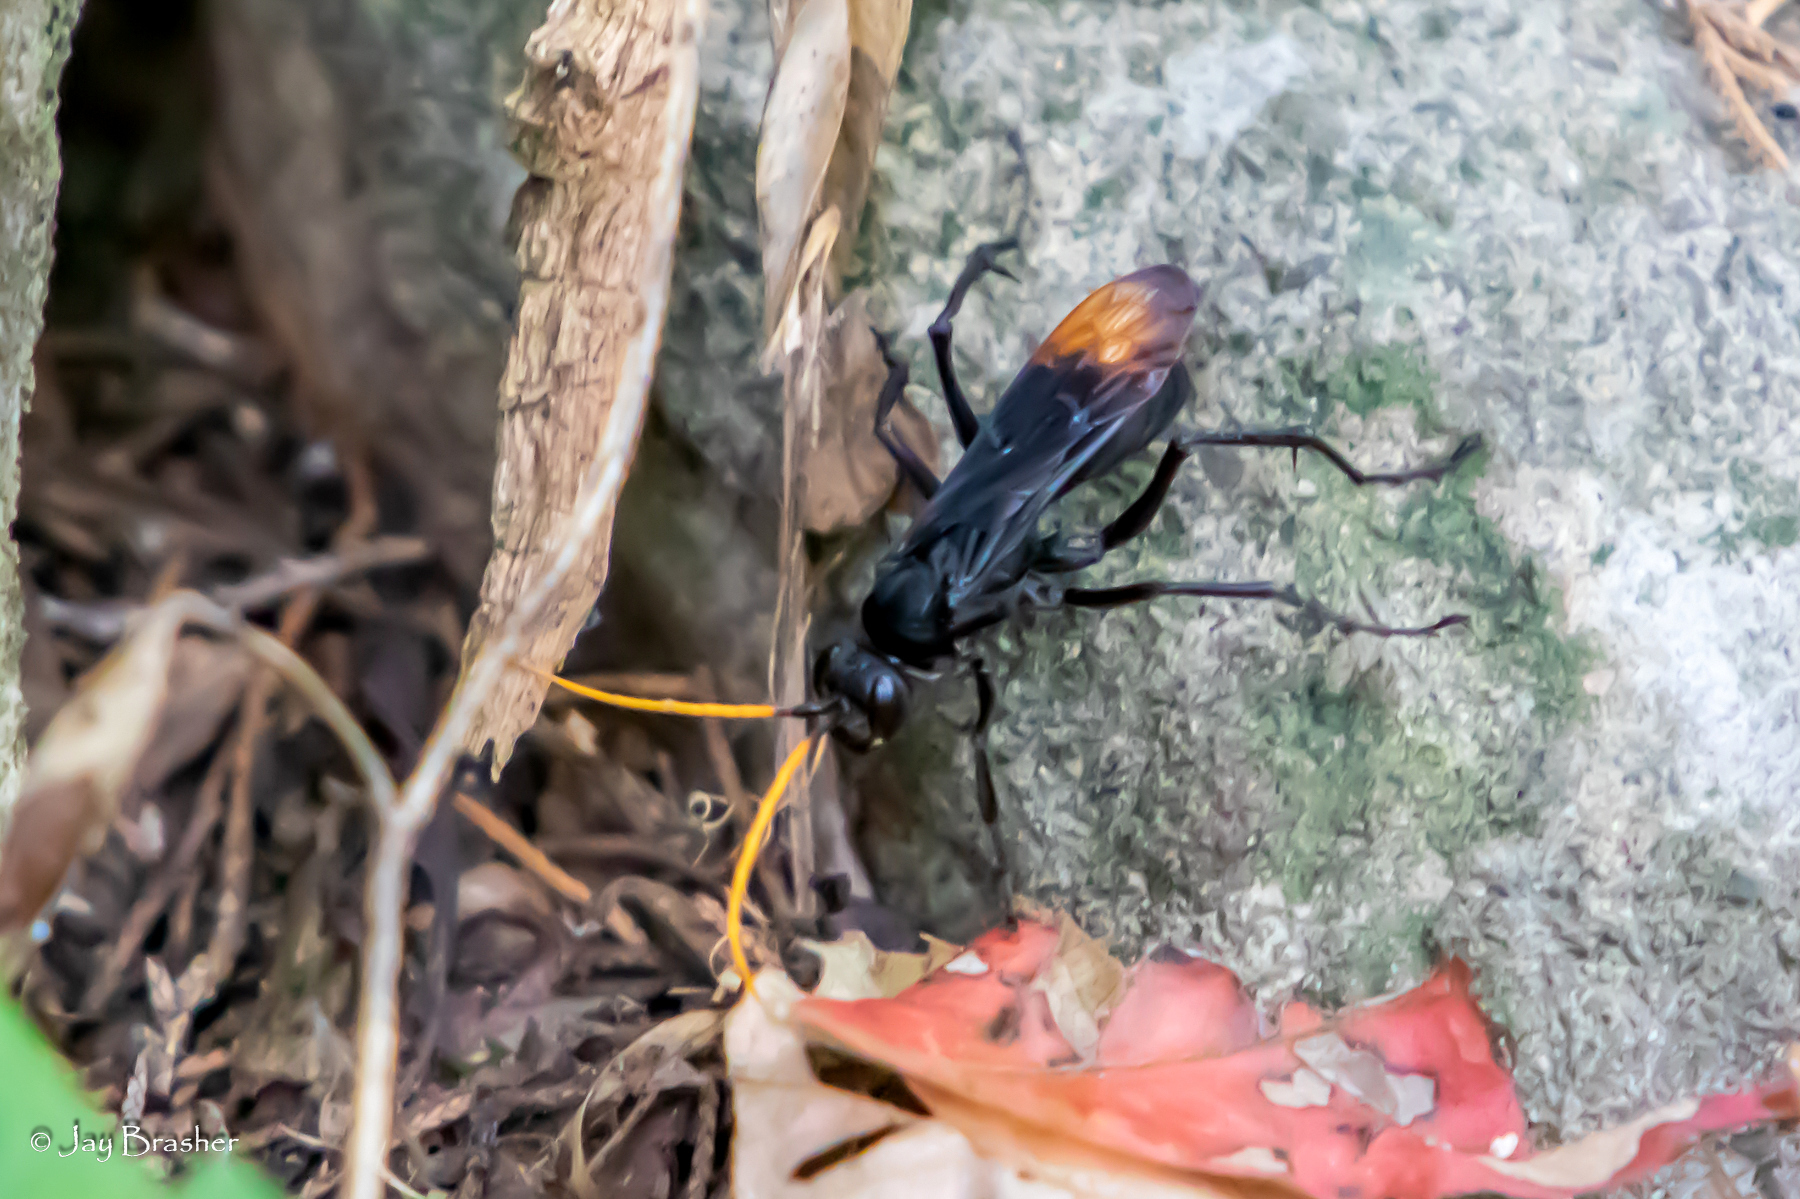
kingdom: Animalia
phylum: Arthropoda
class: Insecta
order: Hymenoptera
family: Pompilidae
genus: Entypus
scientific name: Entypus unifasciatus
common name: Eastern tawny-horned spider wasp
